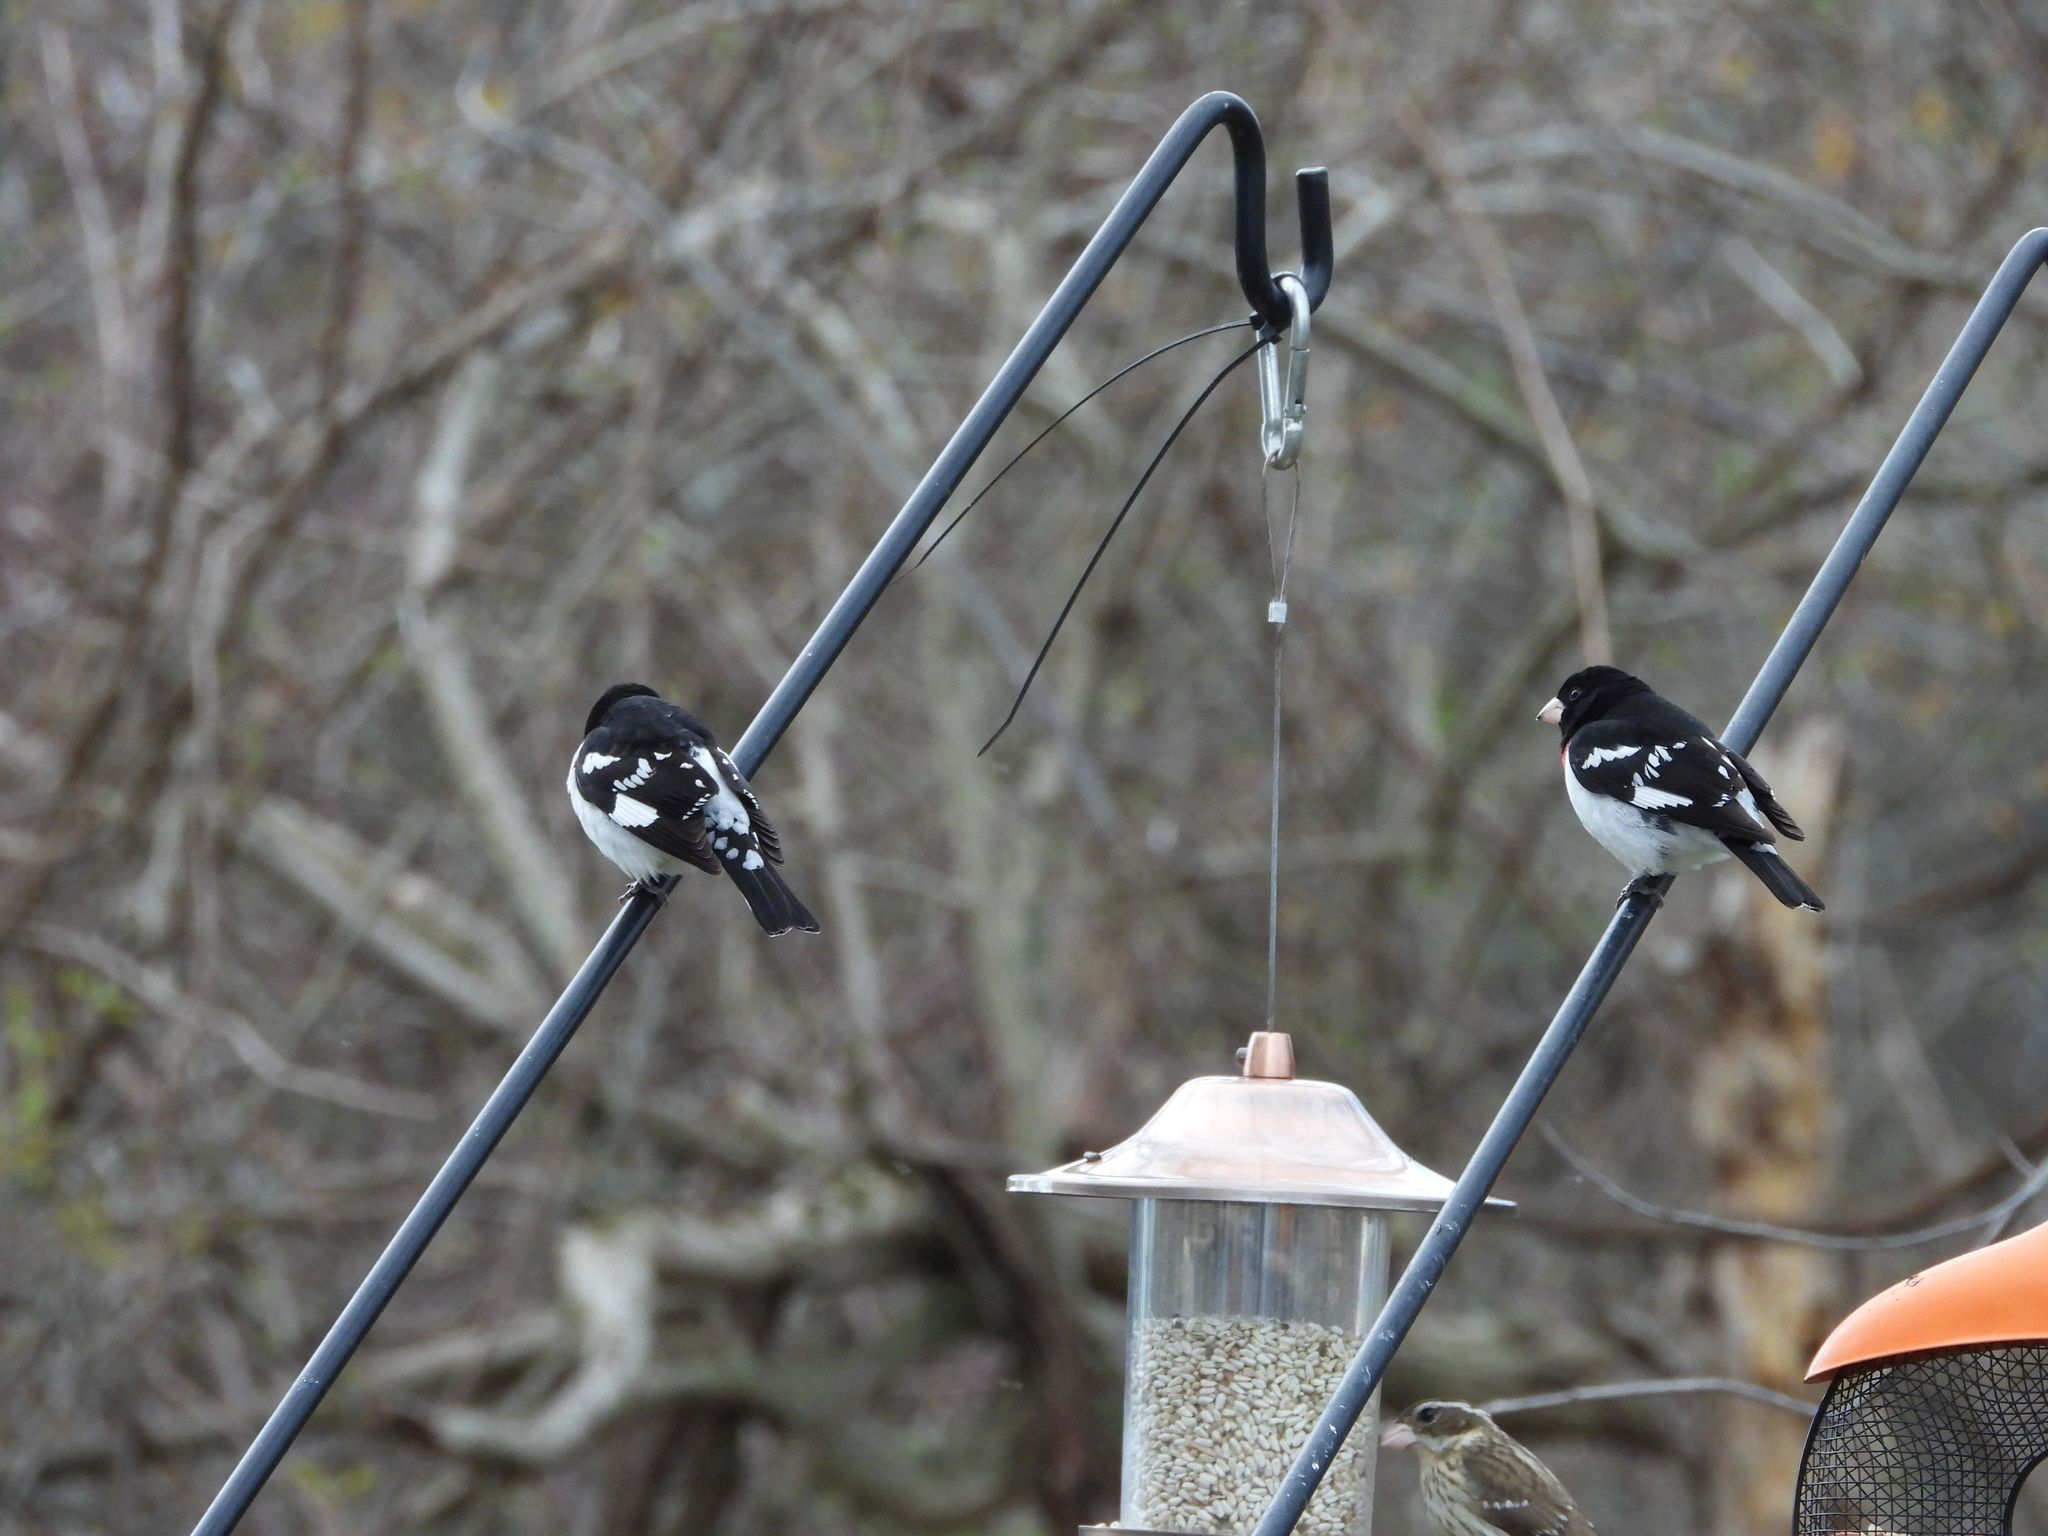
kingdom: Animalia
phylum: Chordata
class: Aves
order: Passeriformes
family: Cardinalidae
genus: Pheucticus
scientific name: Pheucticus ludovicianus
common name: Rose-breasted grosbeak
